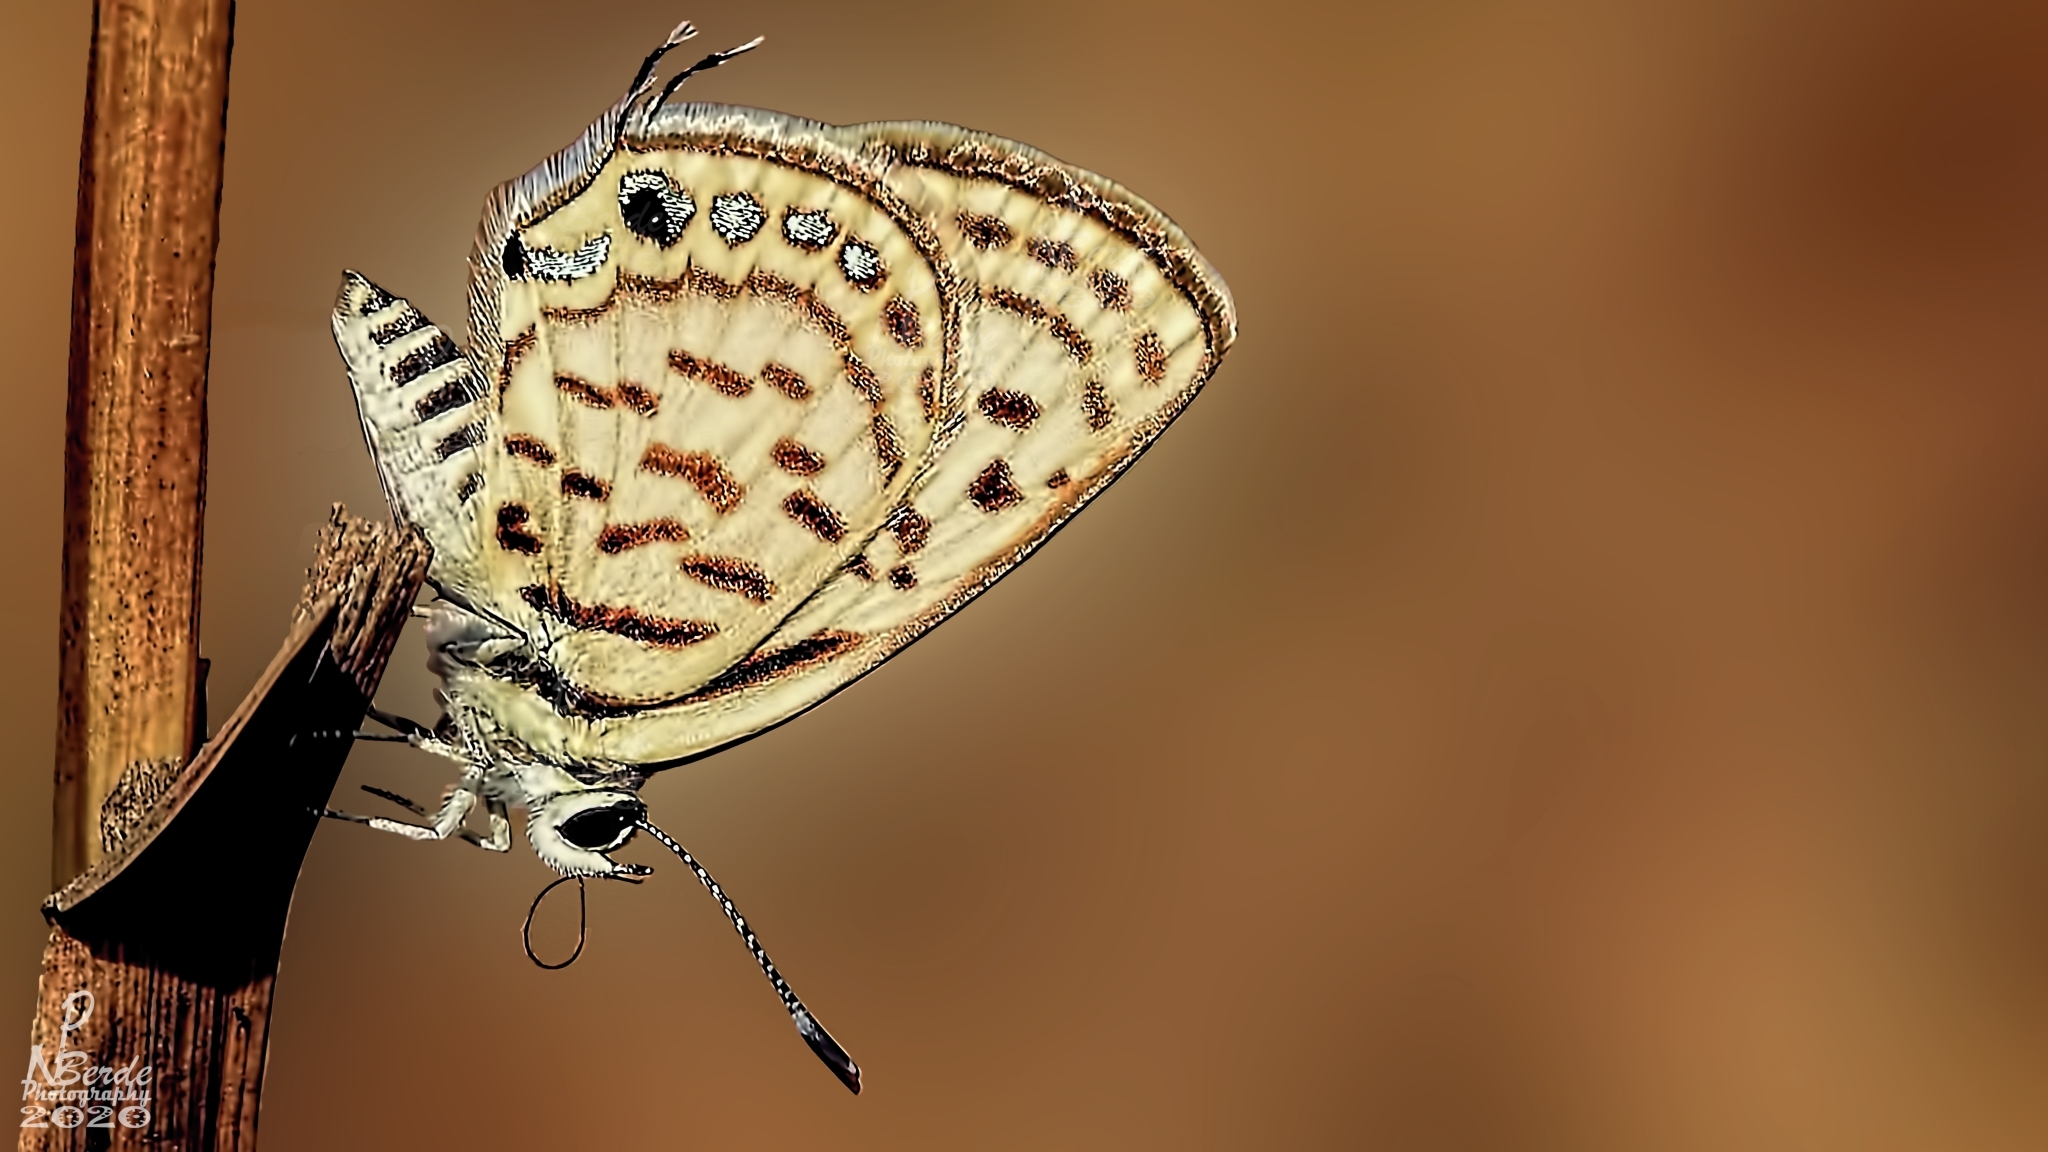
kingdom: Animalia
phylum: Arthropoda
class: Insecta
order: Lepidoptera
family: Lycaenidae
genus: Tarucus
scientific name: Tarucus nara
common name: Striped pierrot
